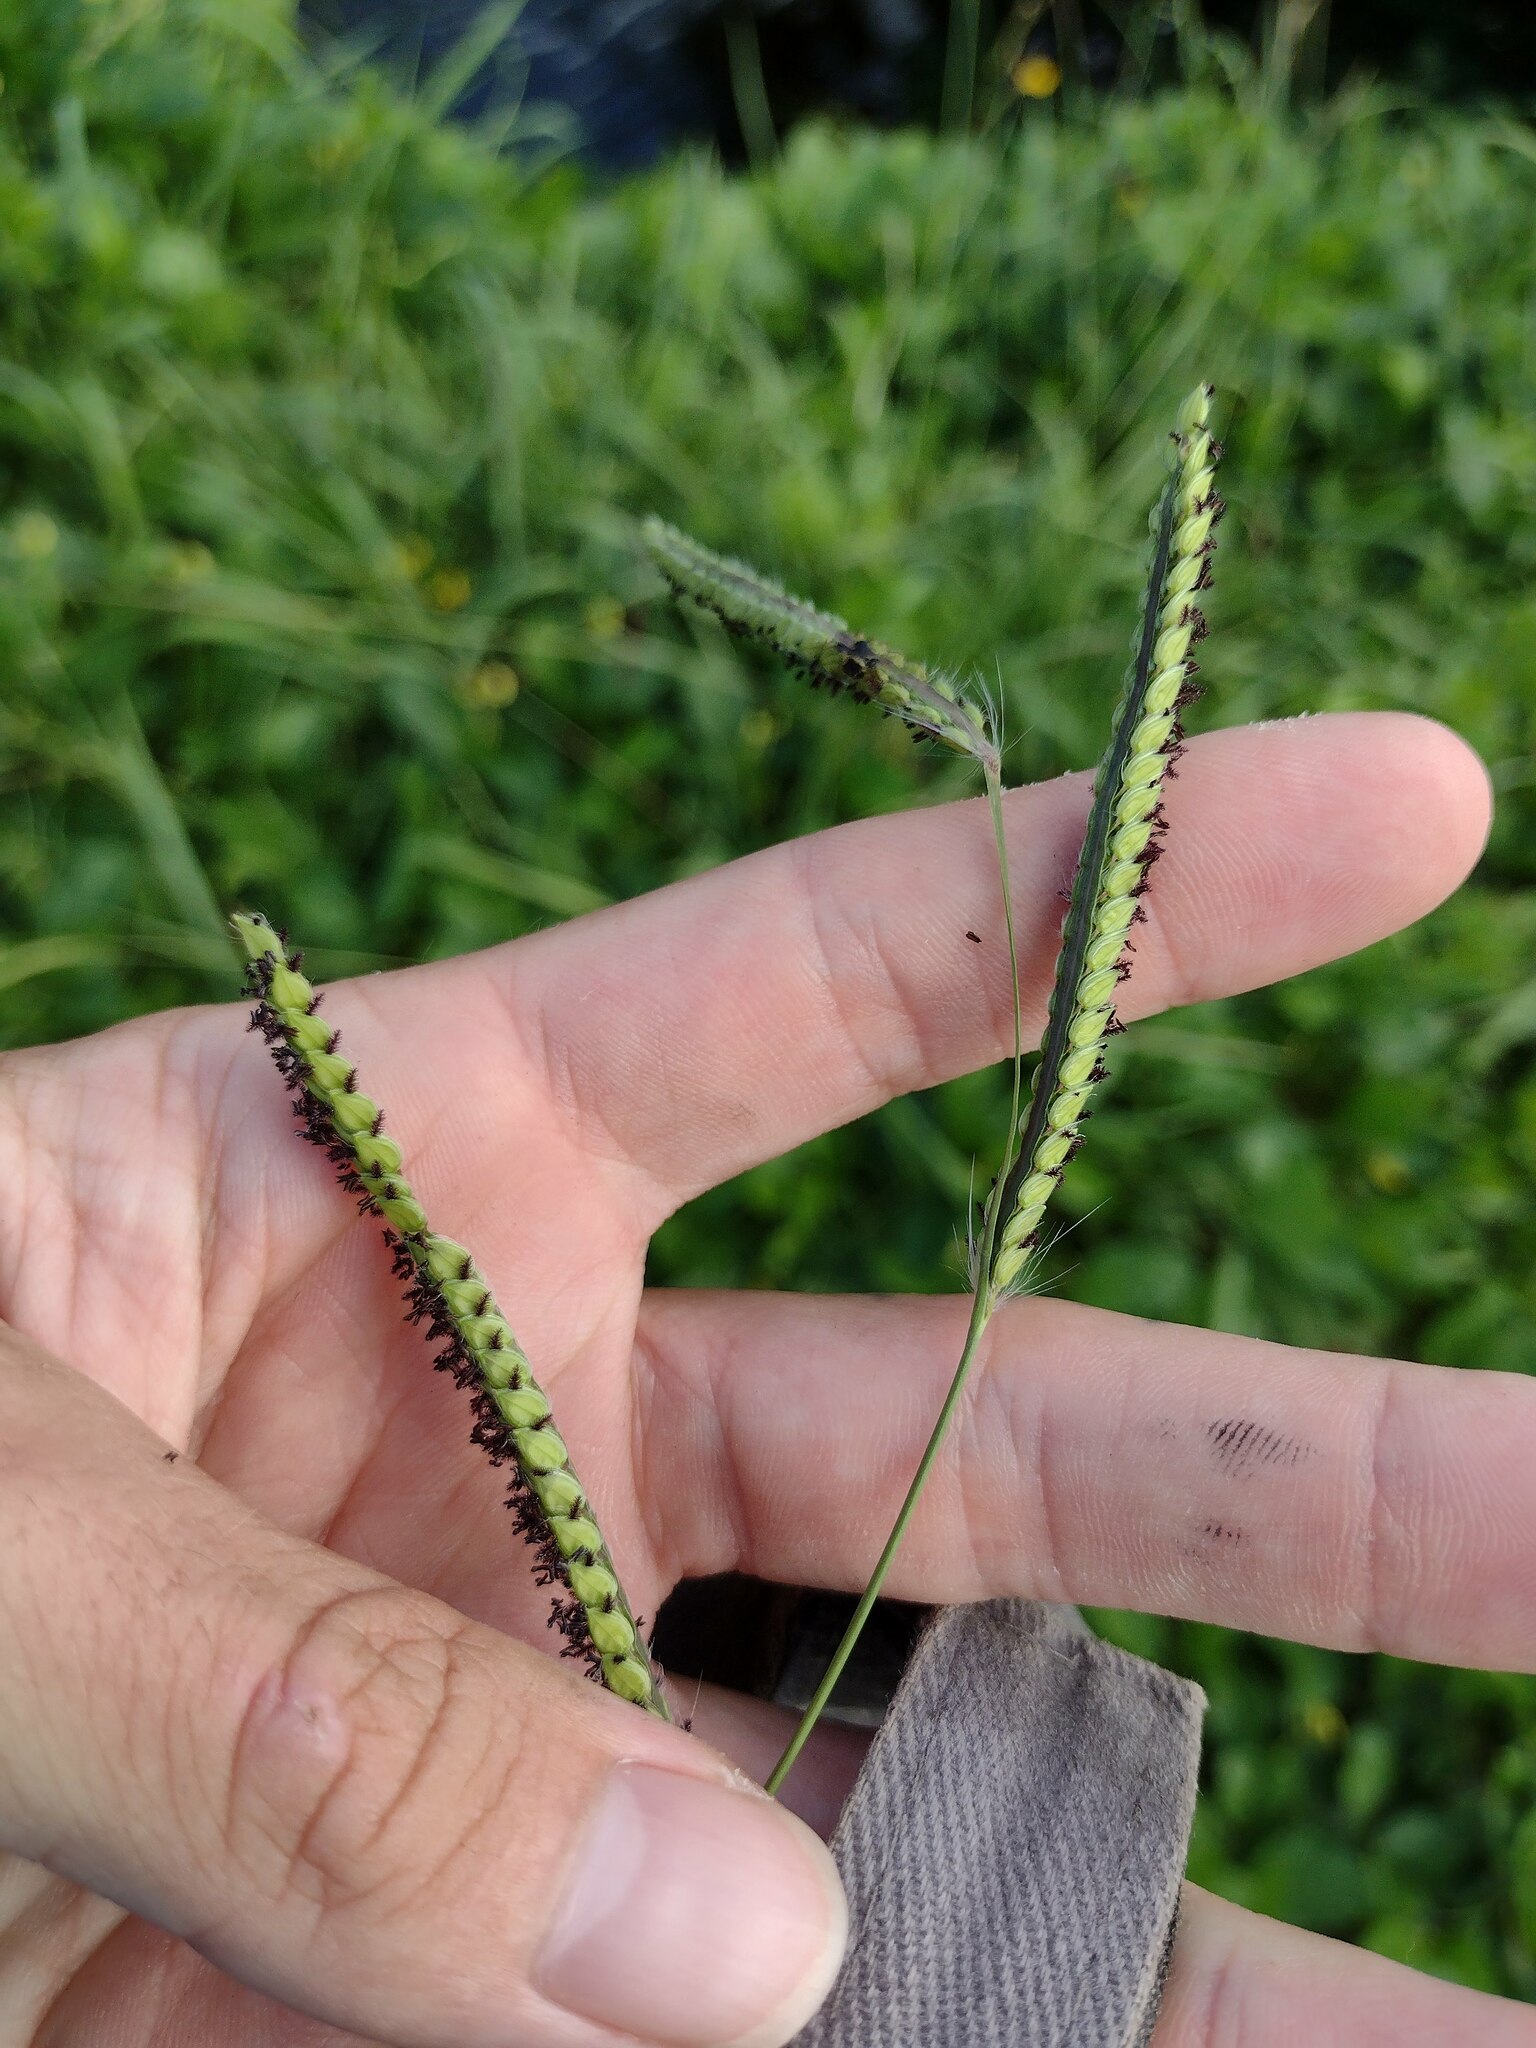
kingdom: Plantae
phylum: Tracheophyta
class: Liliopsida
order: Poales
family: Poaceae
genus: Paspalum
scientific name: Paspalum dilatatum
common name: Dallisgrass
